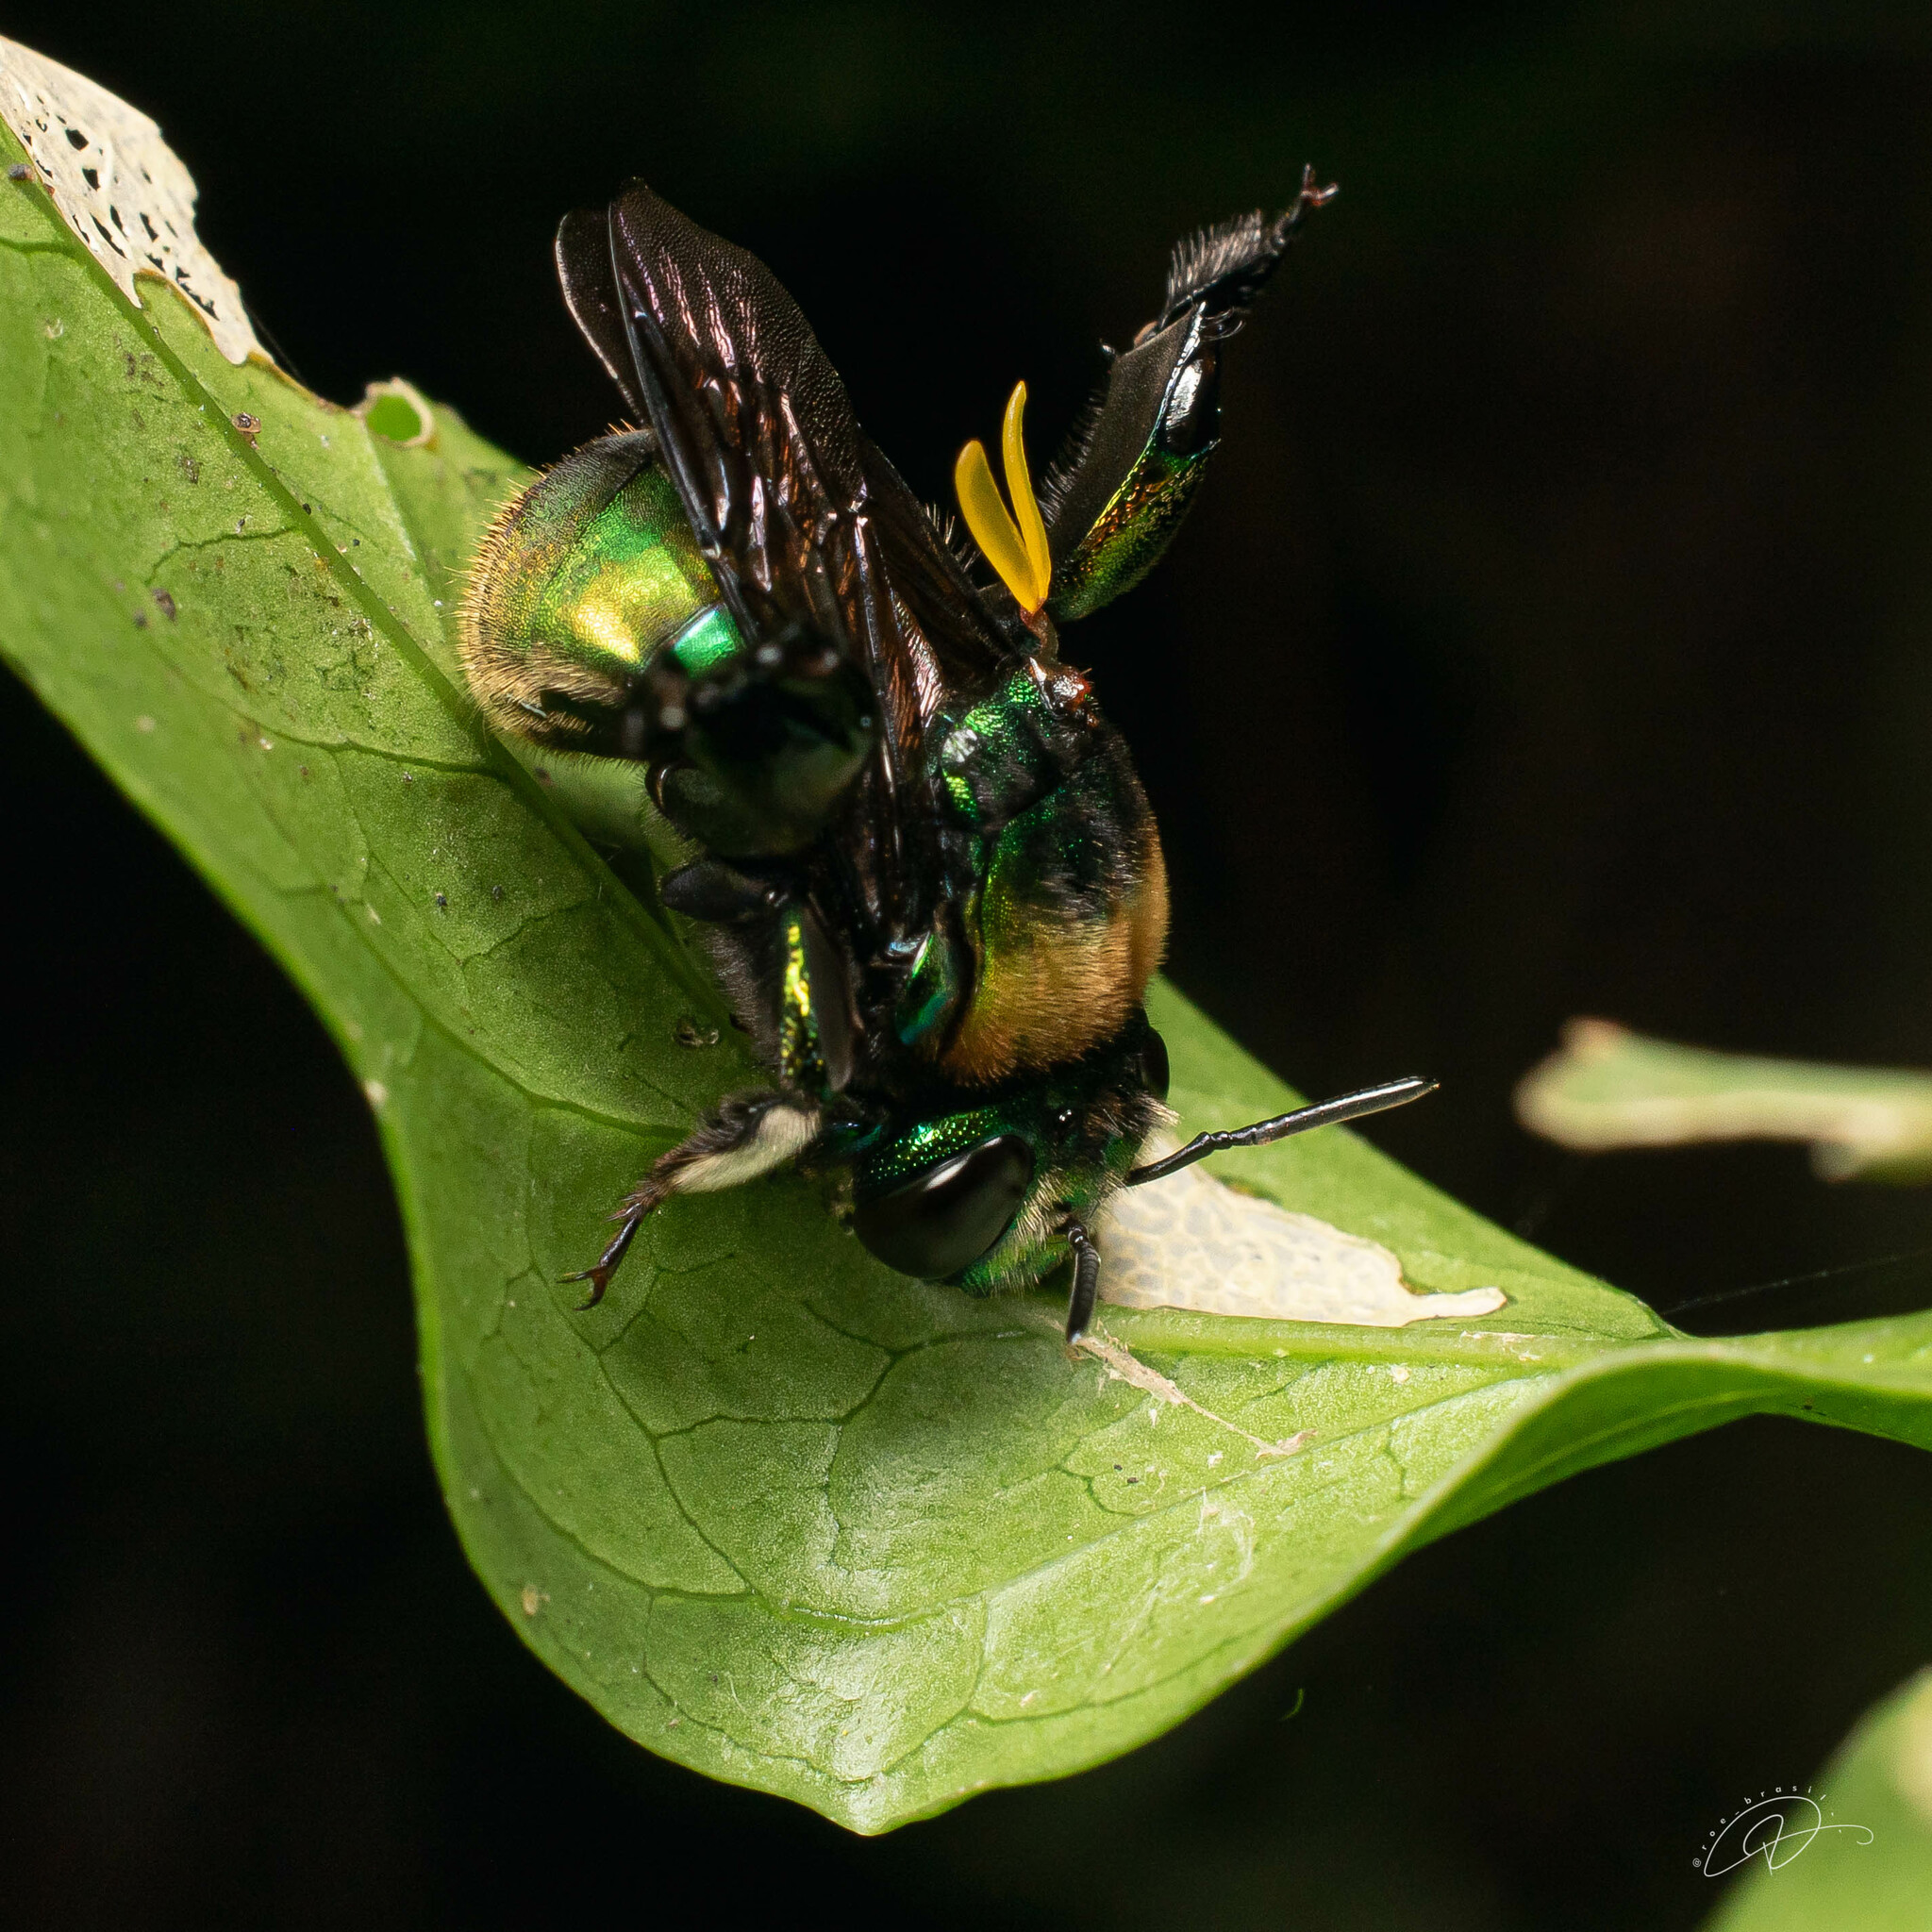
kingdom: Animalia
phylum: Arthropoda
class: Insecta
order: Hymenoptera
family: Apidae
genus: Eufriesea
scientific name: Eufriesea violacea
